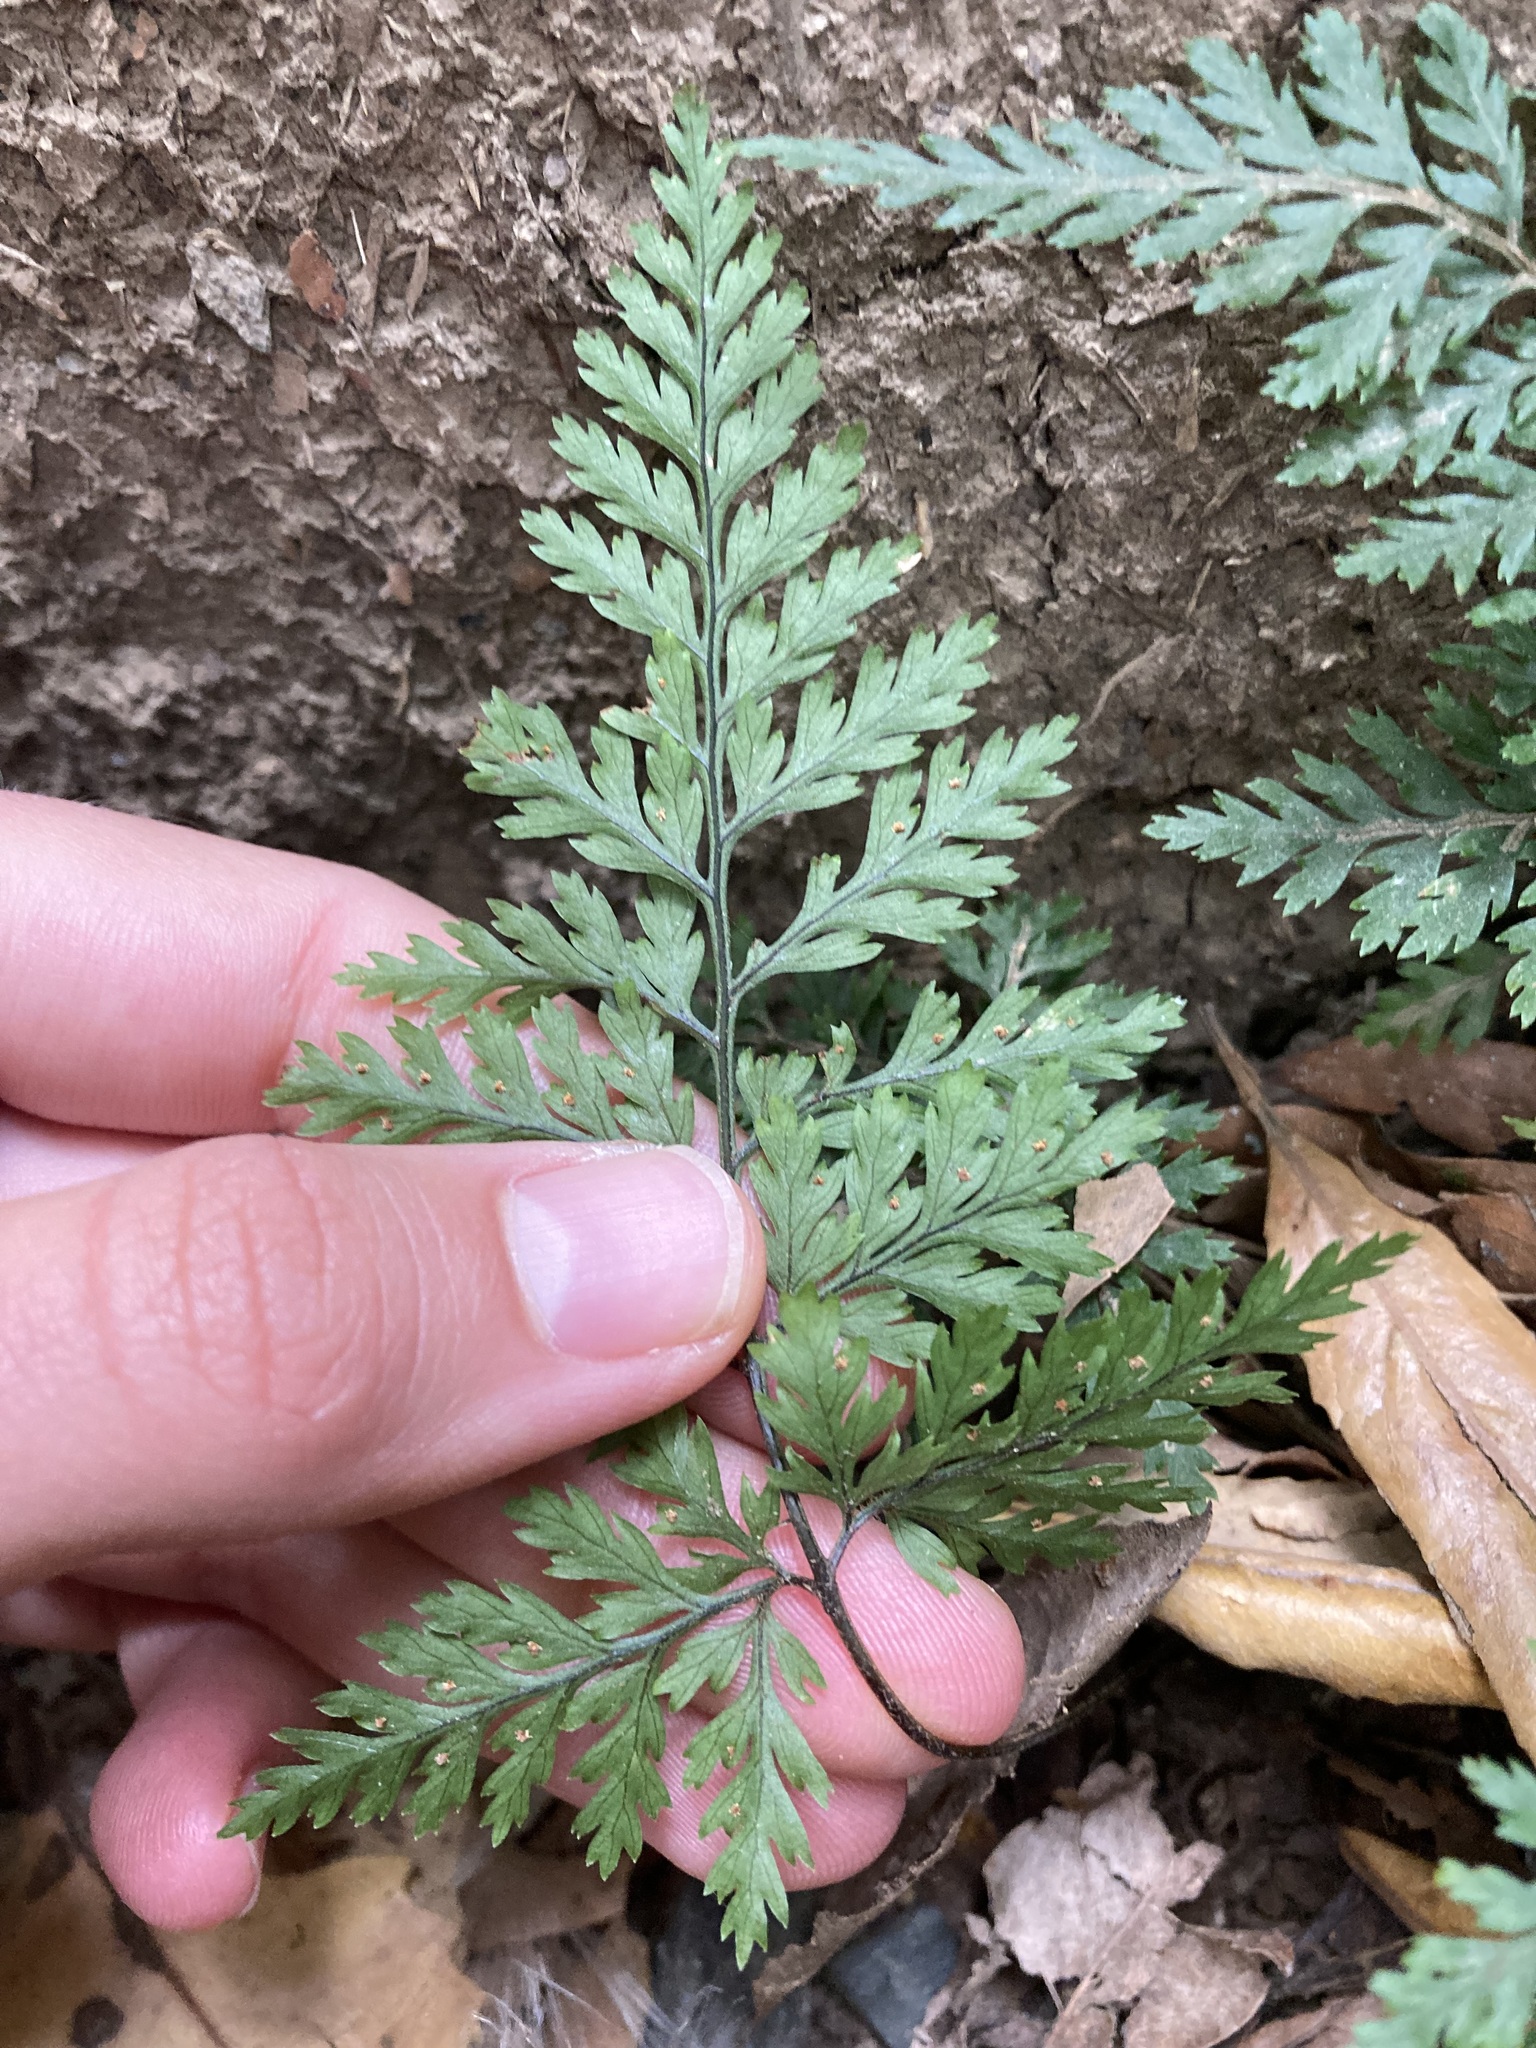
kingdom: Plantae
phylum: Tracheophyta
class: Polypodiopsida
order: Polypodiales
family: Dryopteridaceae
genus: Parapolystichum
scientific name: Parapolystichum glabellum
